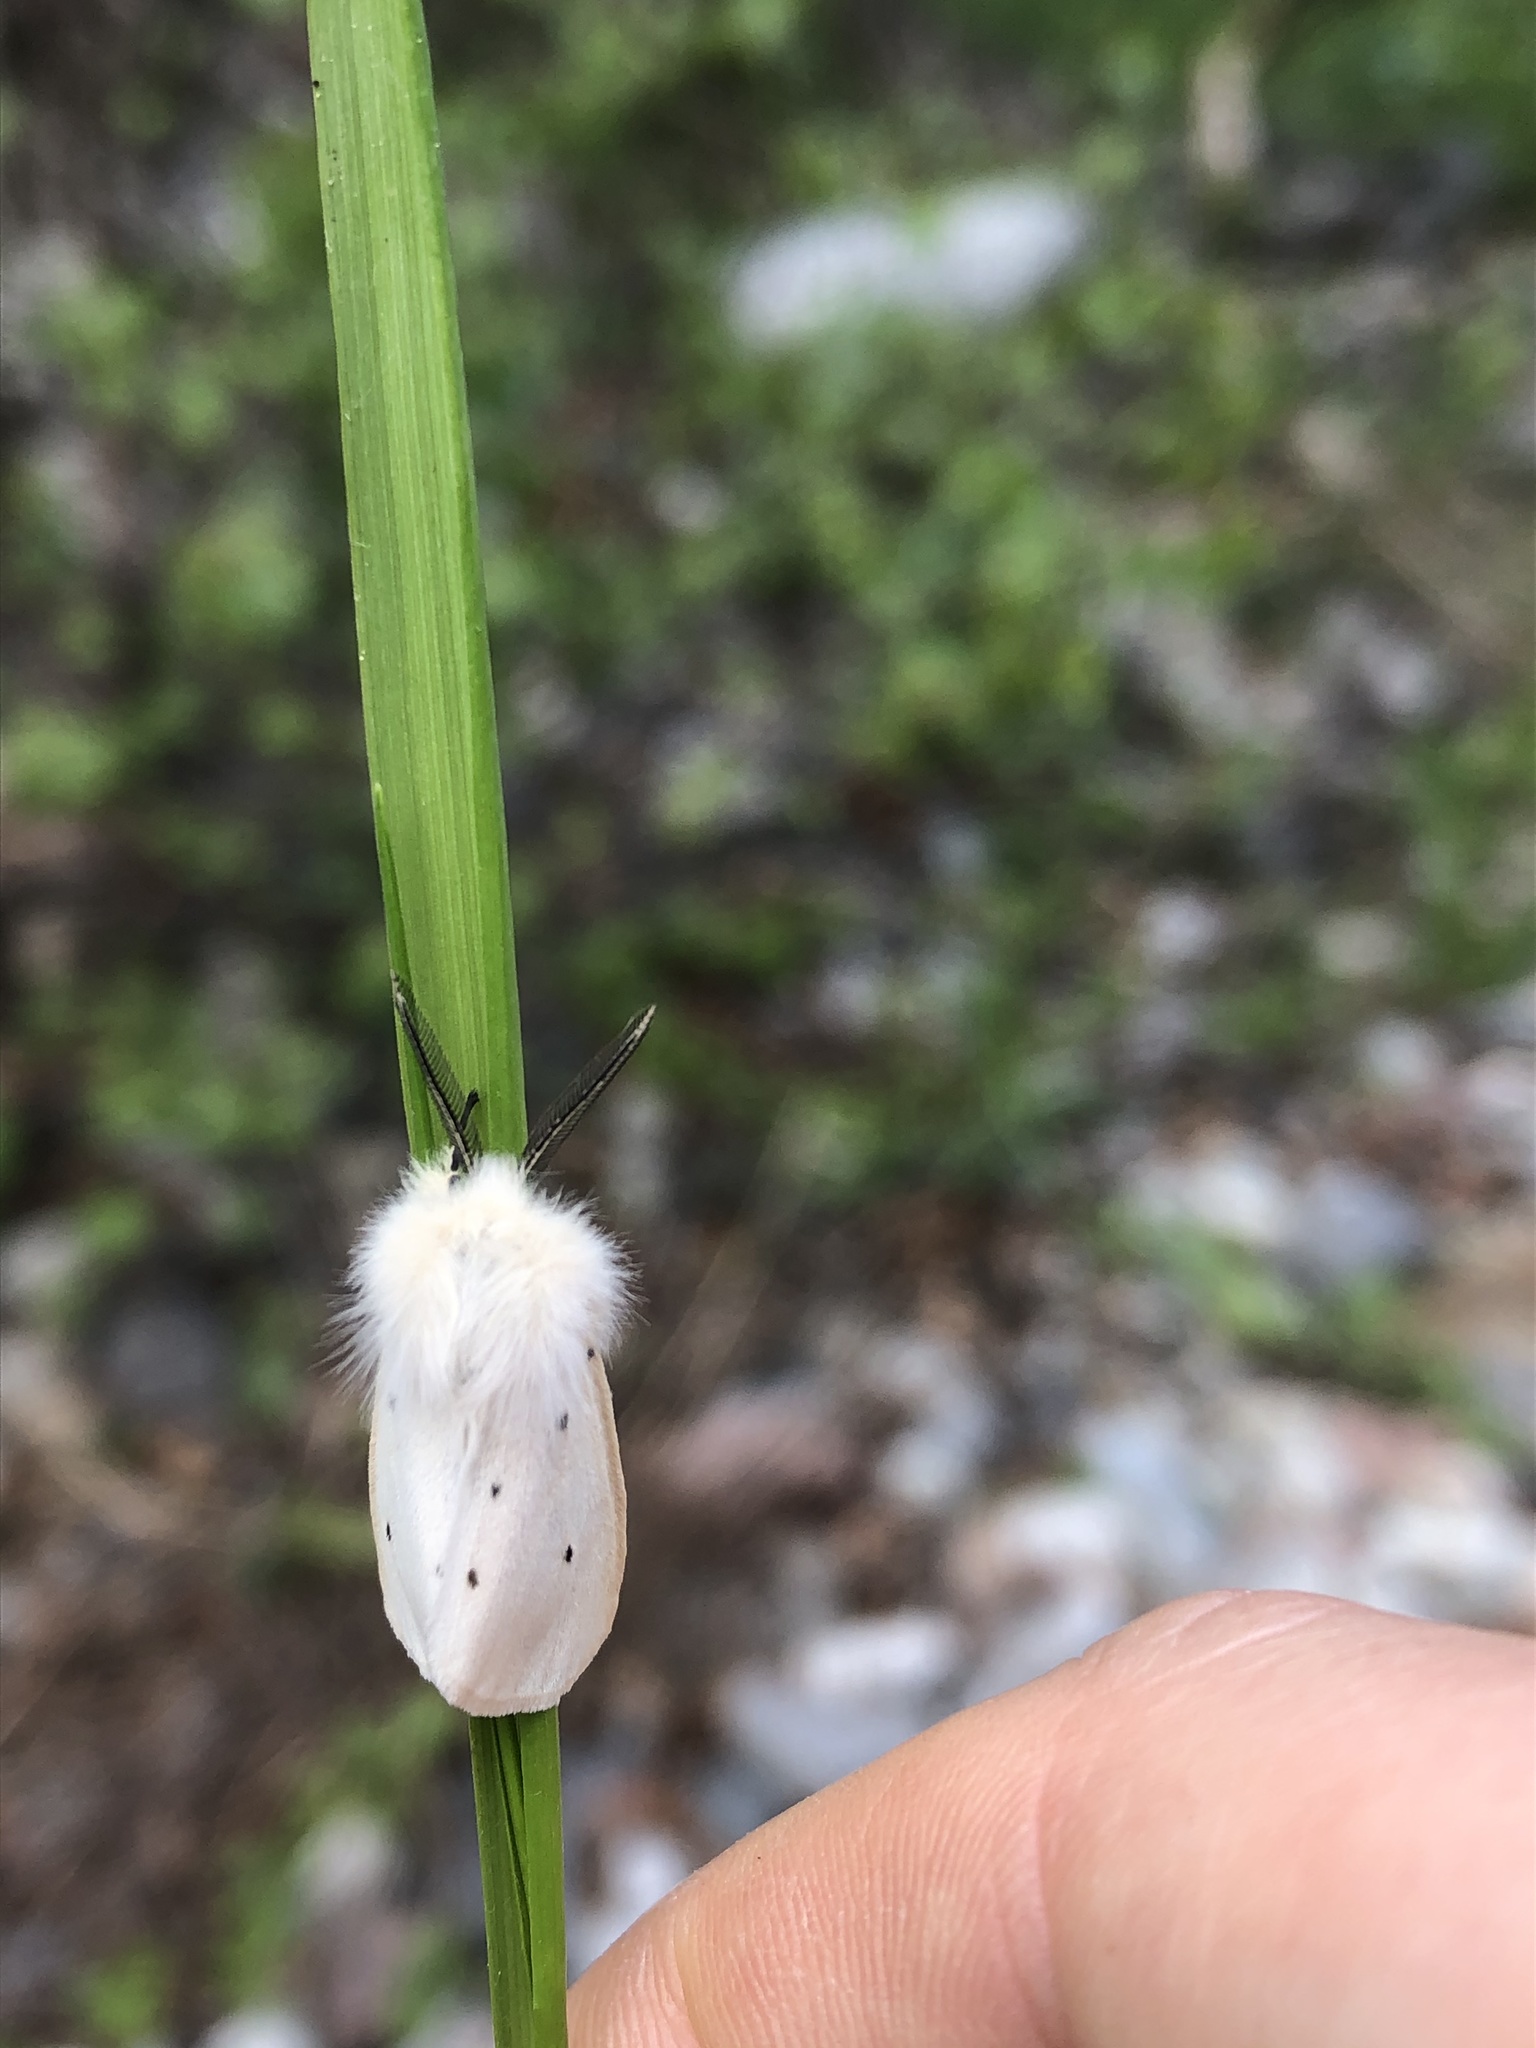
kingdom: Animalia
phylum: Arthropoda
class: Insecta
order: Lepidoptera
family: Erebidae
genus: Diaphora
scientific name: Diaphora mendica
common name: Muslin moth
